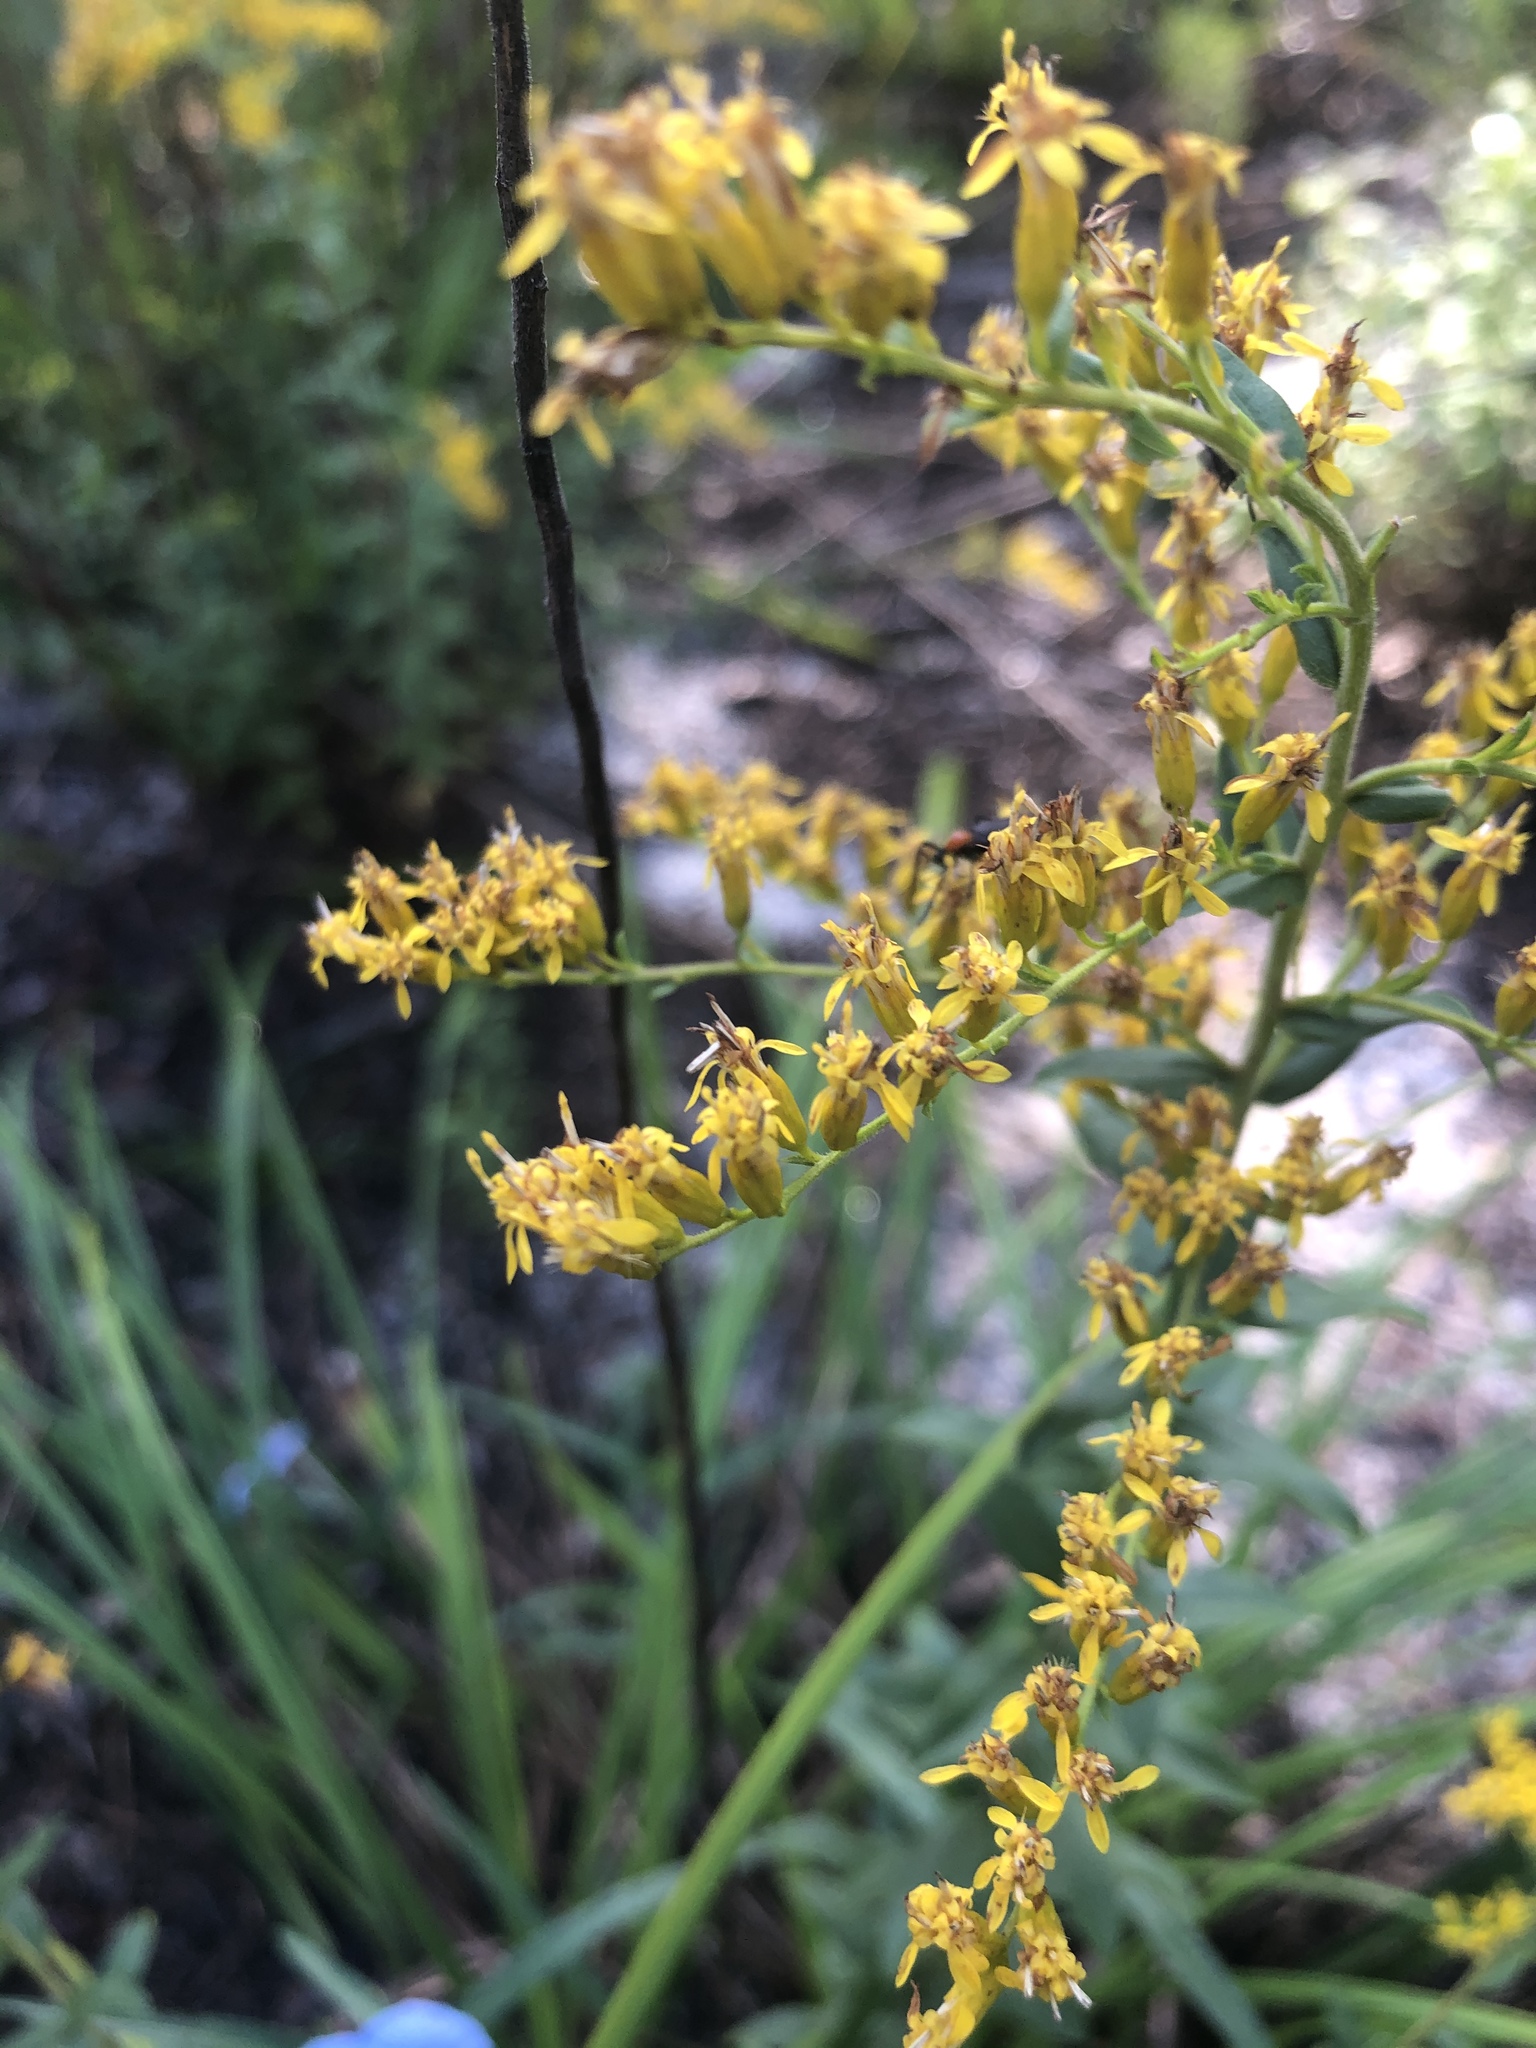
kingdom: Plantae
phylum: Tracheophyta
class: Magnoliopsida
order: Asterales
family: Asteraceae
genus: Solidago
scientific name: Solidago chapmanii
